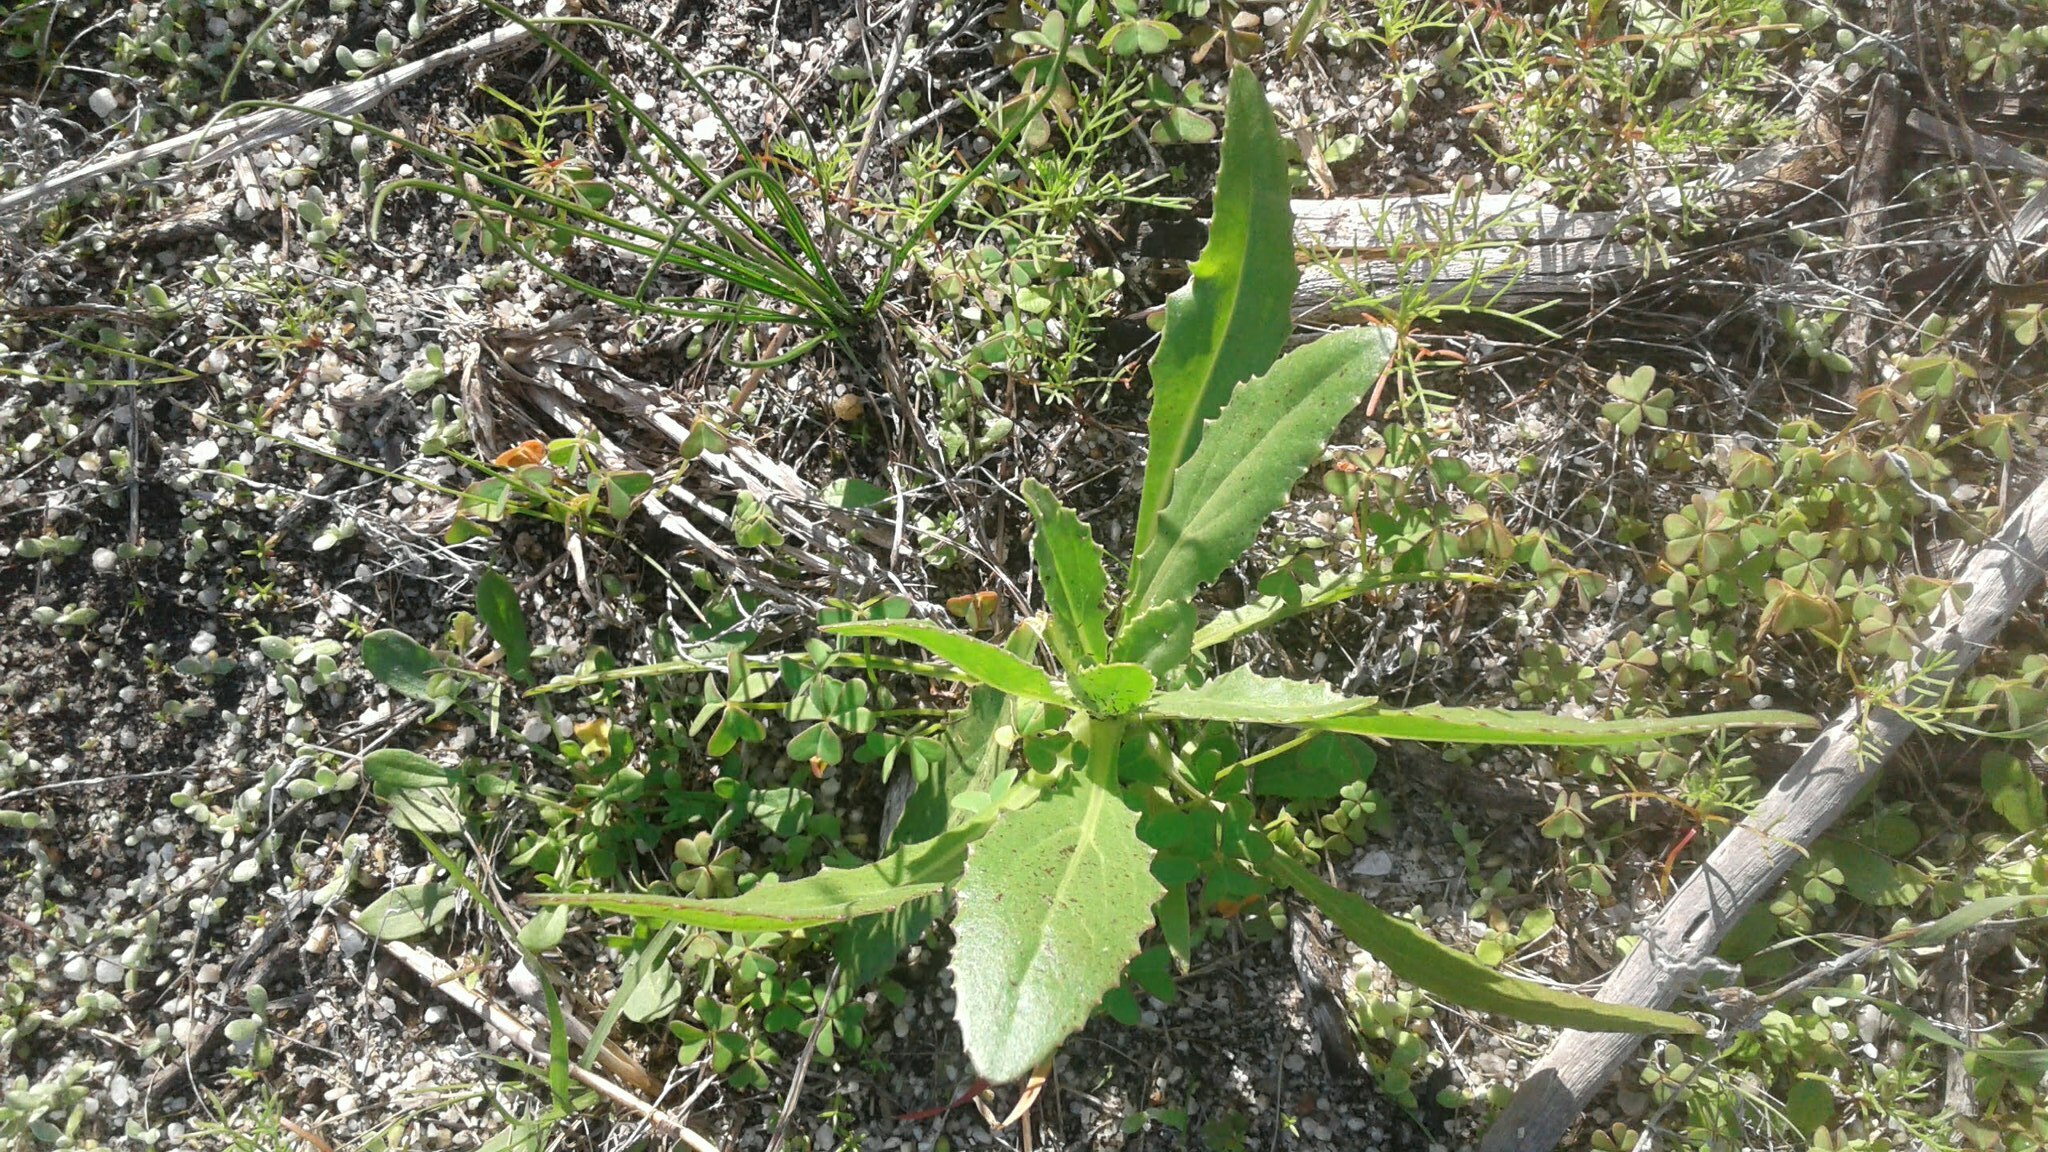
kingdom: Plantae
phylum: Tracheophyta
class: Magnoliopsida
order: Asterales
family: Asteraceae
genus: Osteospermum
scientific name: Osteospermum monstrosum
